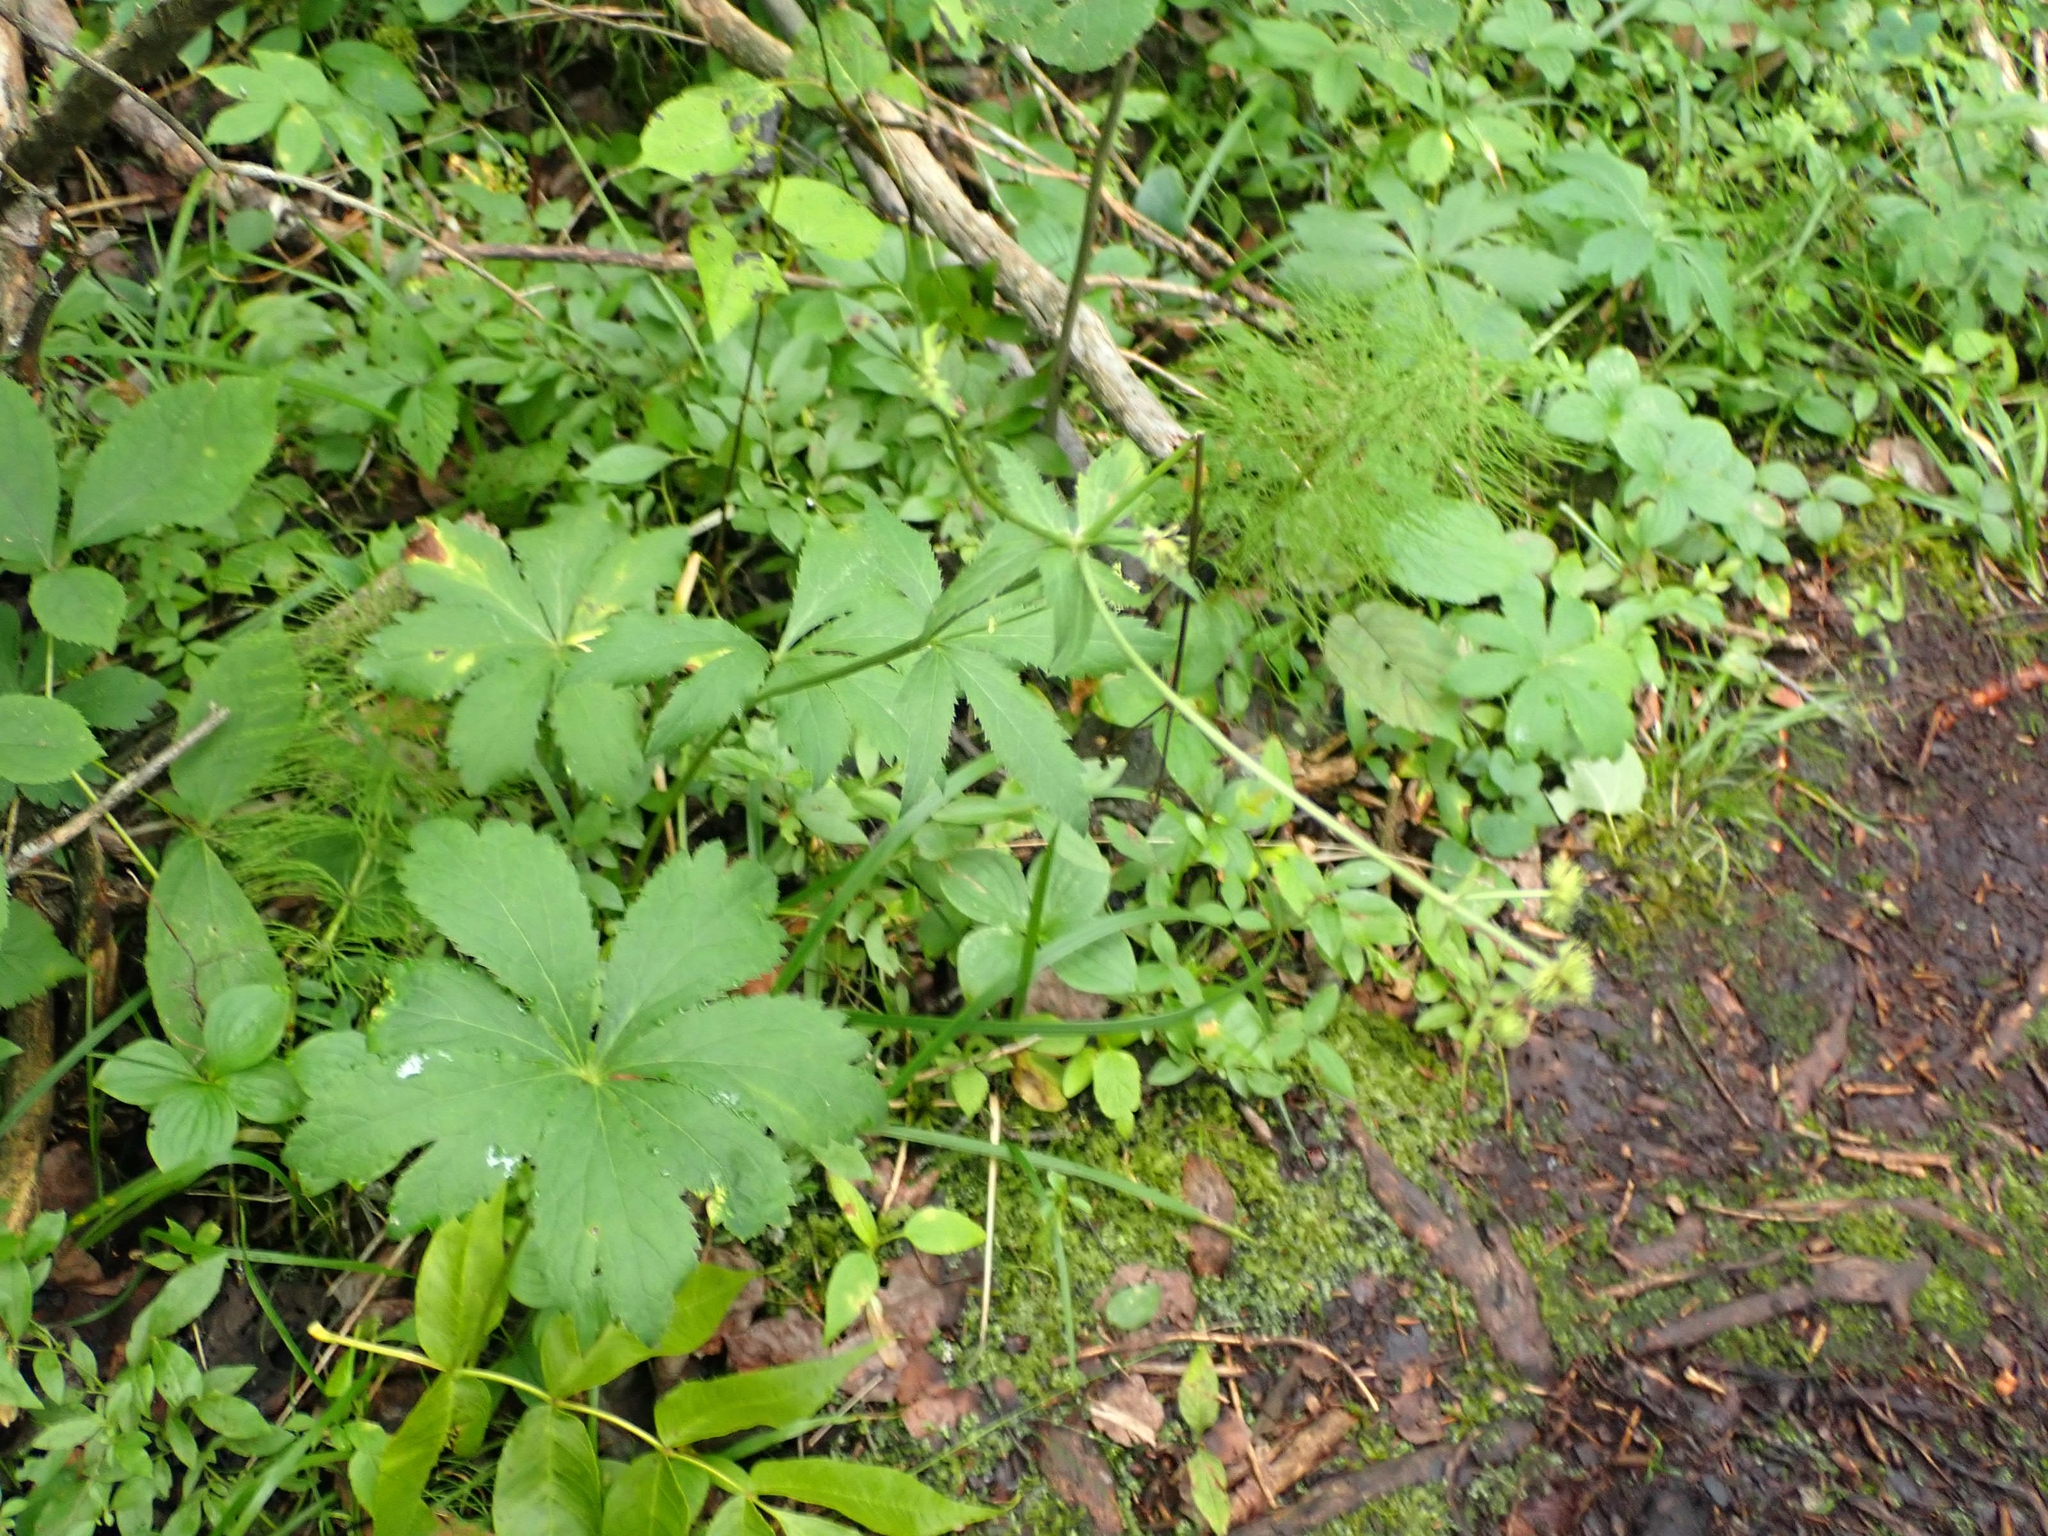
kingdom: Plantae
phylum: Tracheophyta
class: Magnoliopsida
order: Apiales
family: Apiaceae
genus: Sanicula
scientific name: Sanicula marilandica
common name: Black snakeroot
